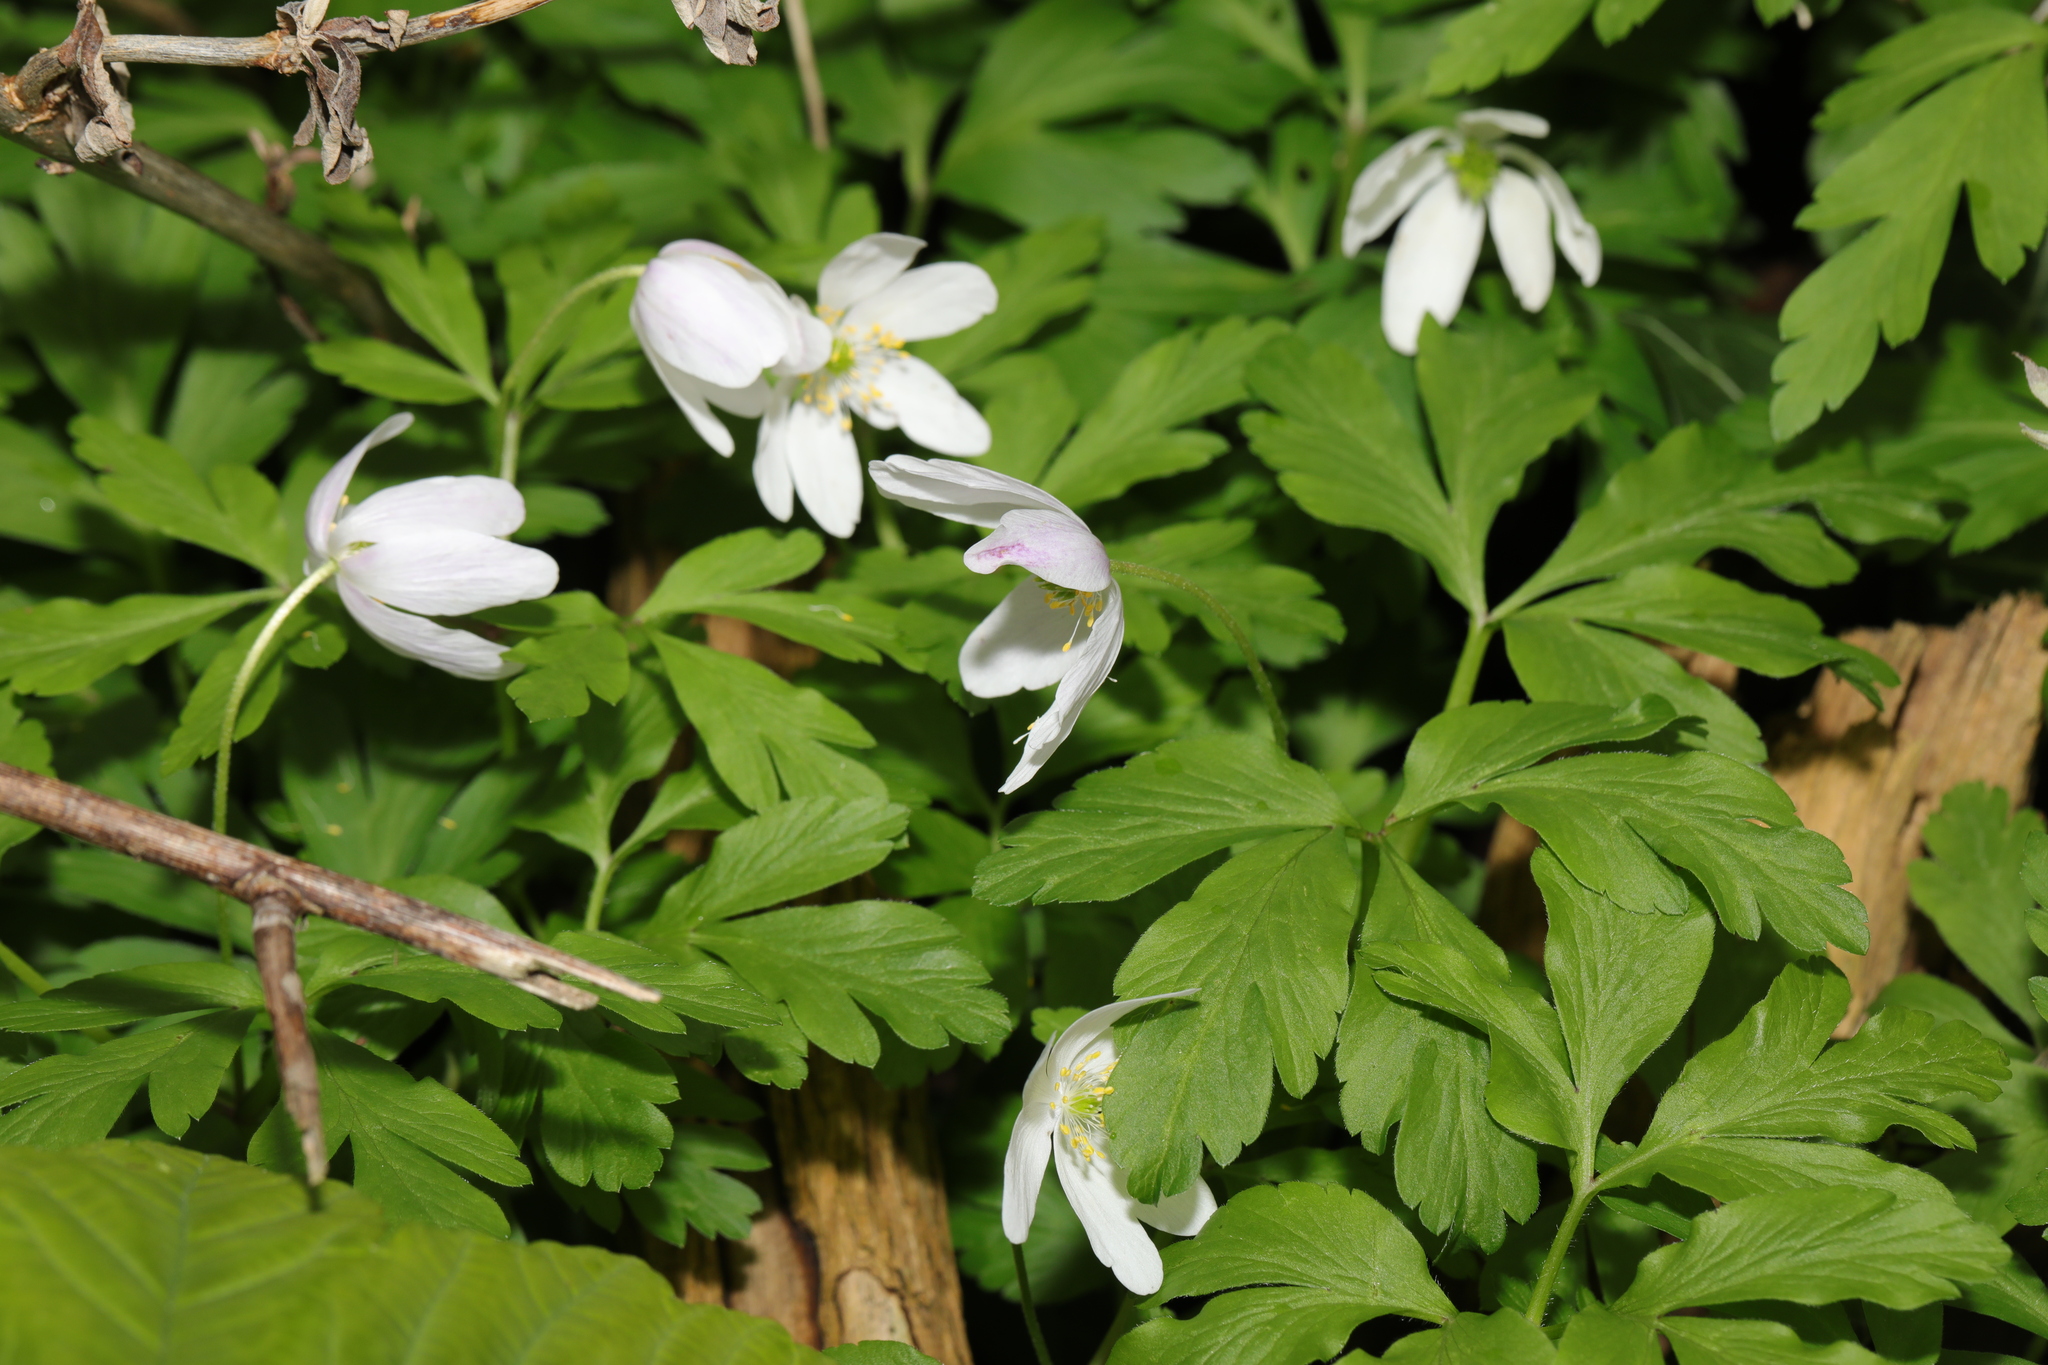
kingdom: Plantae
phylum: Tracheophyta
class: Magnoliopsida
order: Ranunculales
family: Ranunculaceae
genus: Anemone
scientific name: Anemone nemorosa
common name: Wood anemone
